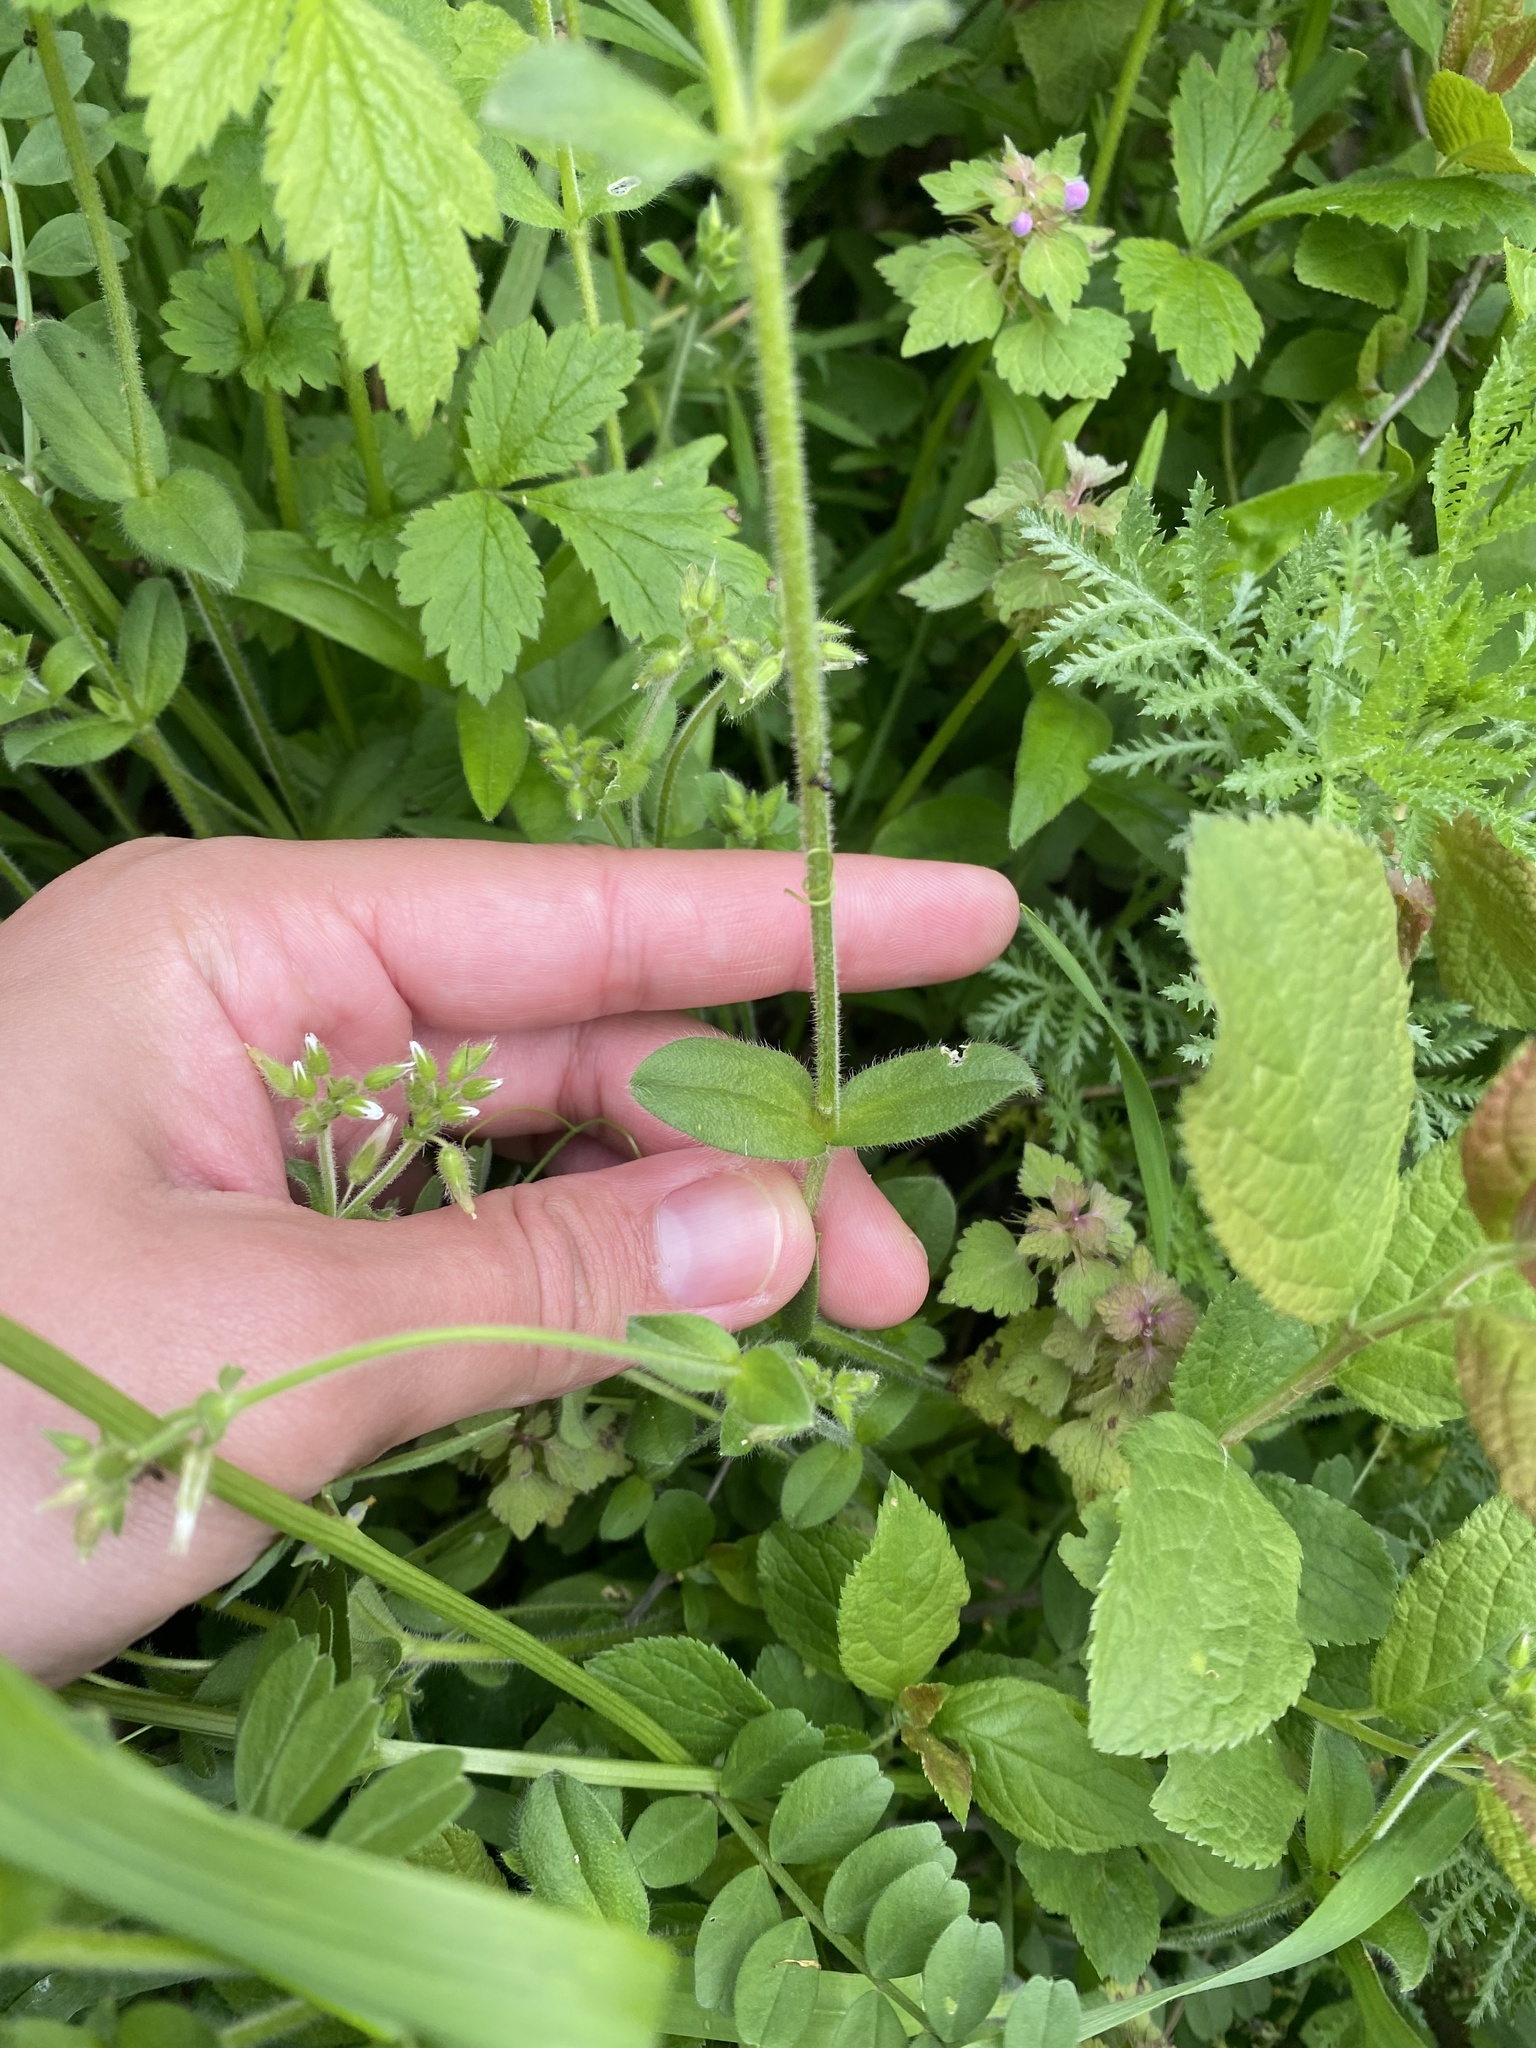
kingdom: Plantae
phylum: Tracheophyta
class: Magnoliopsida
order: Caryophyllales
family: Caryophyllaceae
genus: Cerastium
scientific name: Cerastium glomeratum
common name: Sticky chickweed
